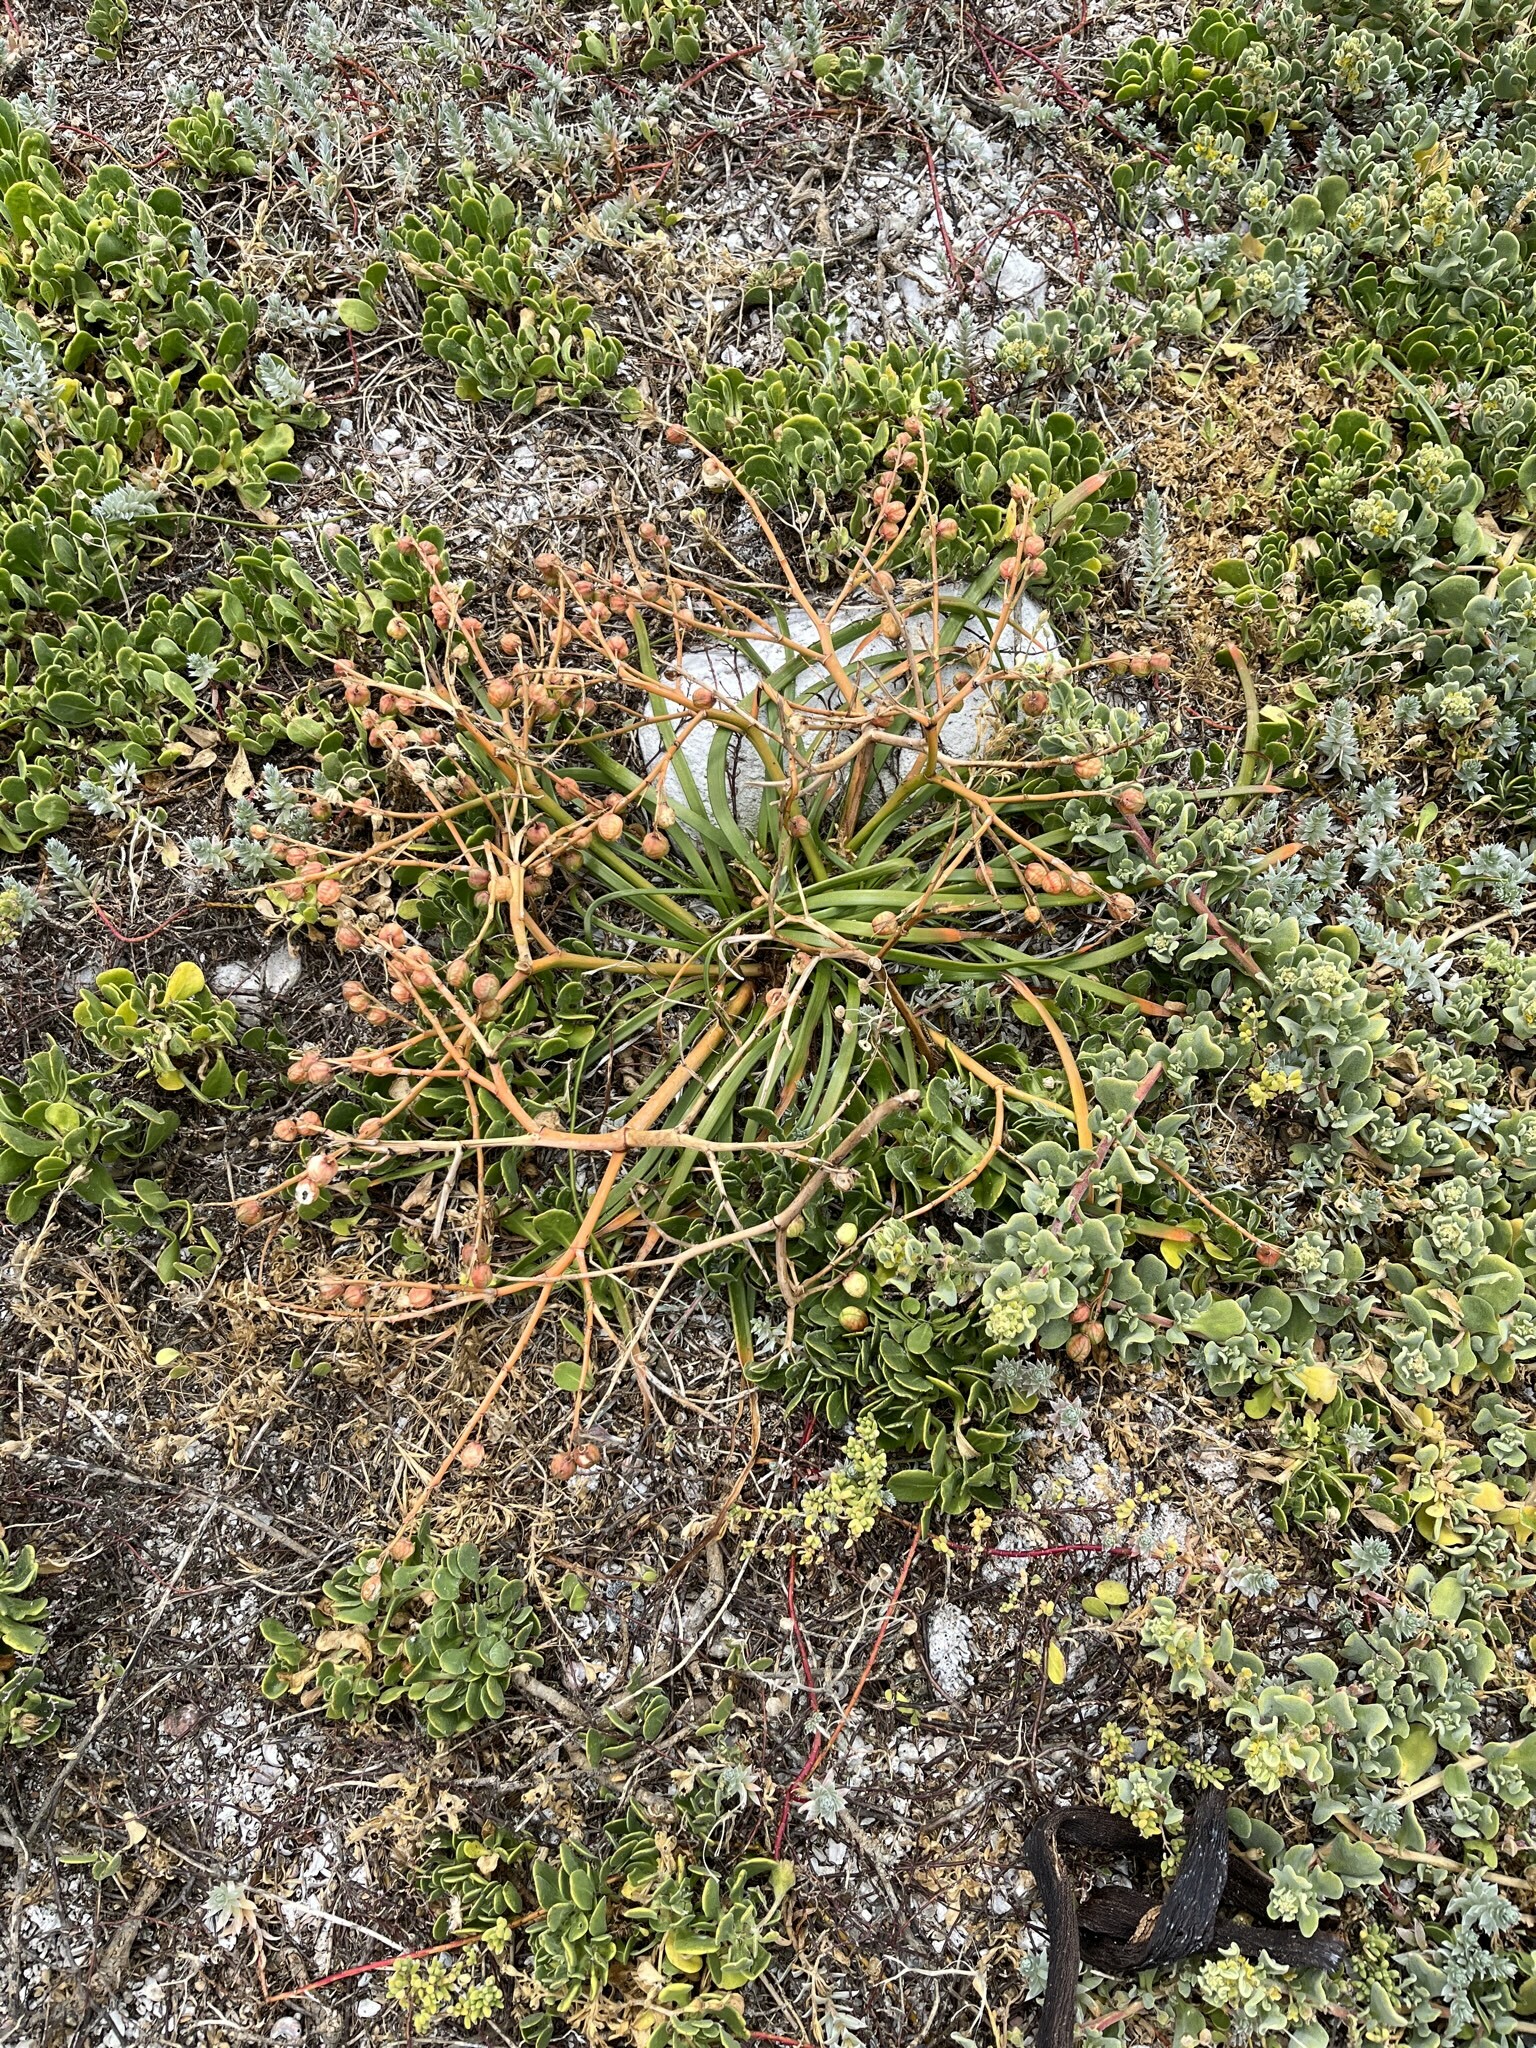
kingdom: Plantae
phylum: Tracheophyta
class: Liliopsida
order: Asparagales
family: Asphodelaceae
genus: Trachyandra
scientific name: Trachyandra divaricata
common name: Dune onionweed
